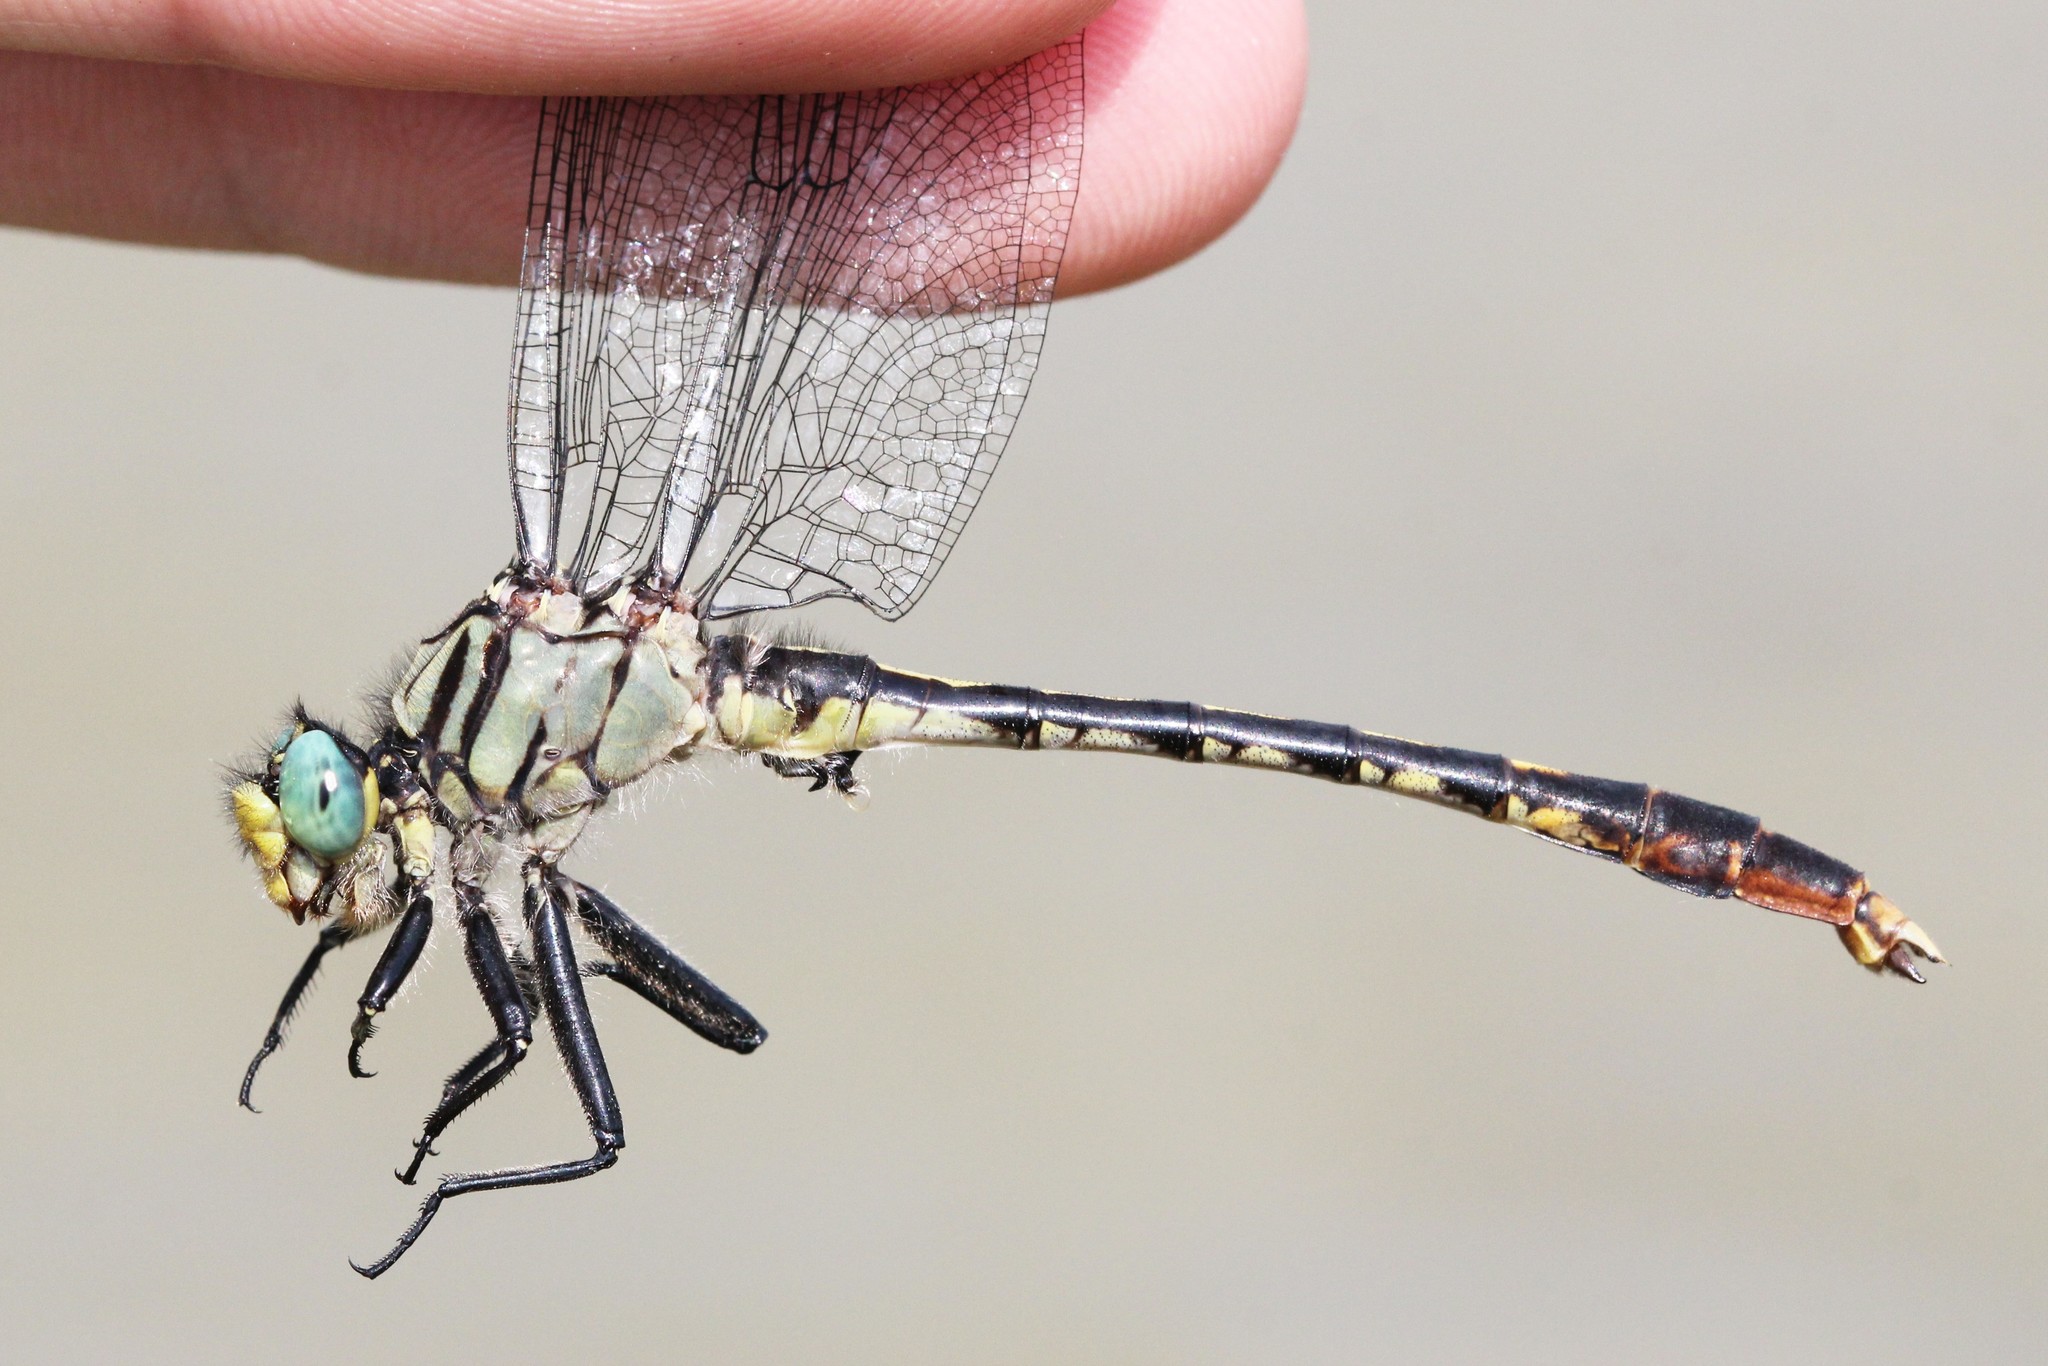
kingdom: Animalia
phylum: Arthropoda
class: Insecta
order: Odonata
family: Gomphidae
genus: Arigomphus
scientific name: Arigomphus villosipes
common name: Unicorn clubtail
